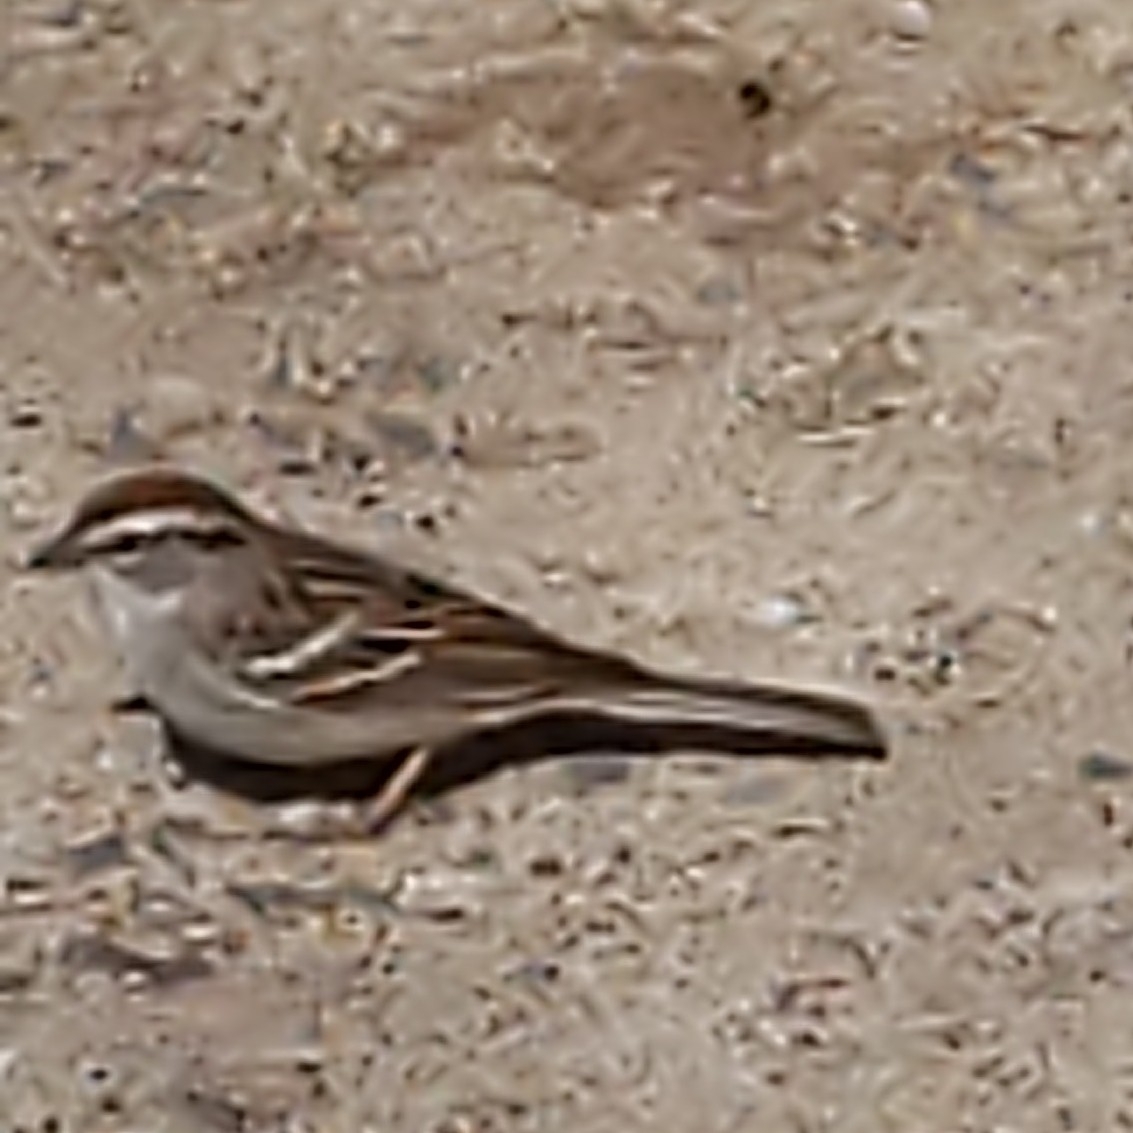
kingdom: Animalia
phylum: Chordata
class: Aves
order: Passeriformes
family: Passerellidae
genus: Spizella
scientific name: Spizella passerina
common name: Chipping sparrow
